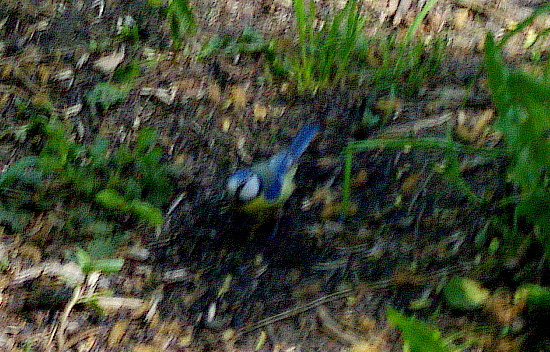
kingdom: Animalia
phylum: Chordata
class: Aves
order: Passeriformes
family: Paridae
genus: Cyanistes
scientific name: Cyanistes caeruleus
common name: Eurasian blue tit
